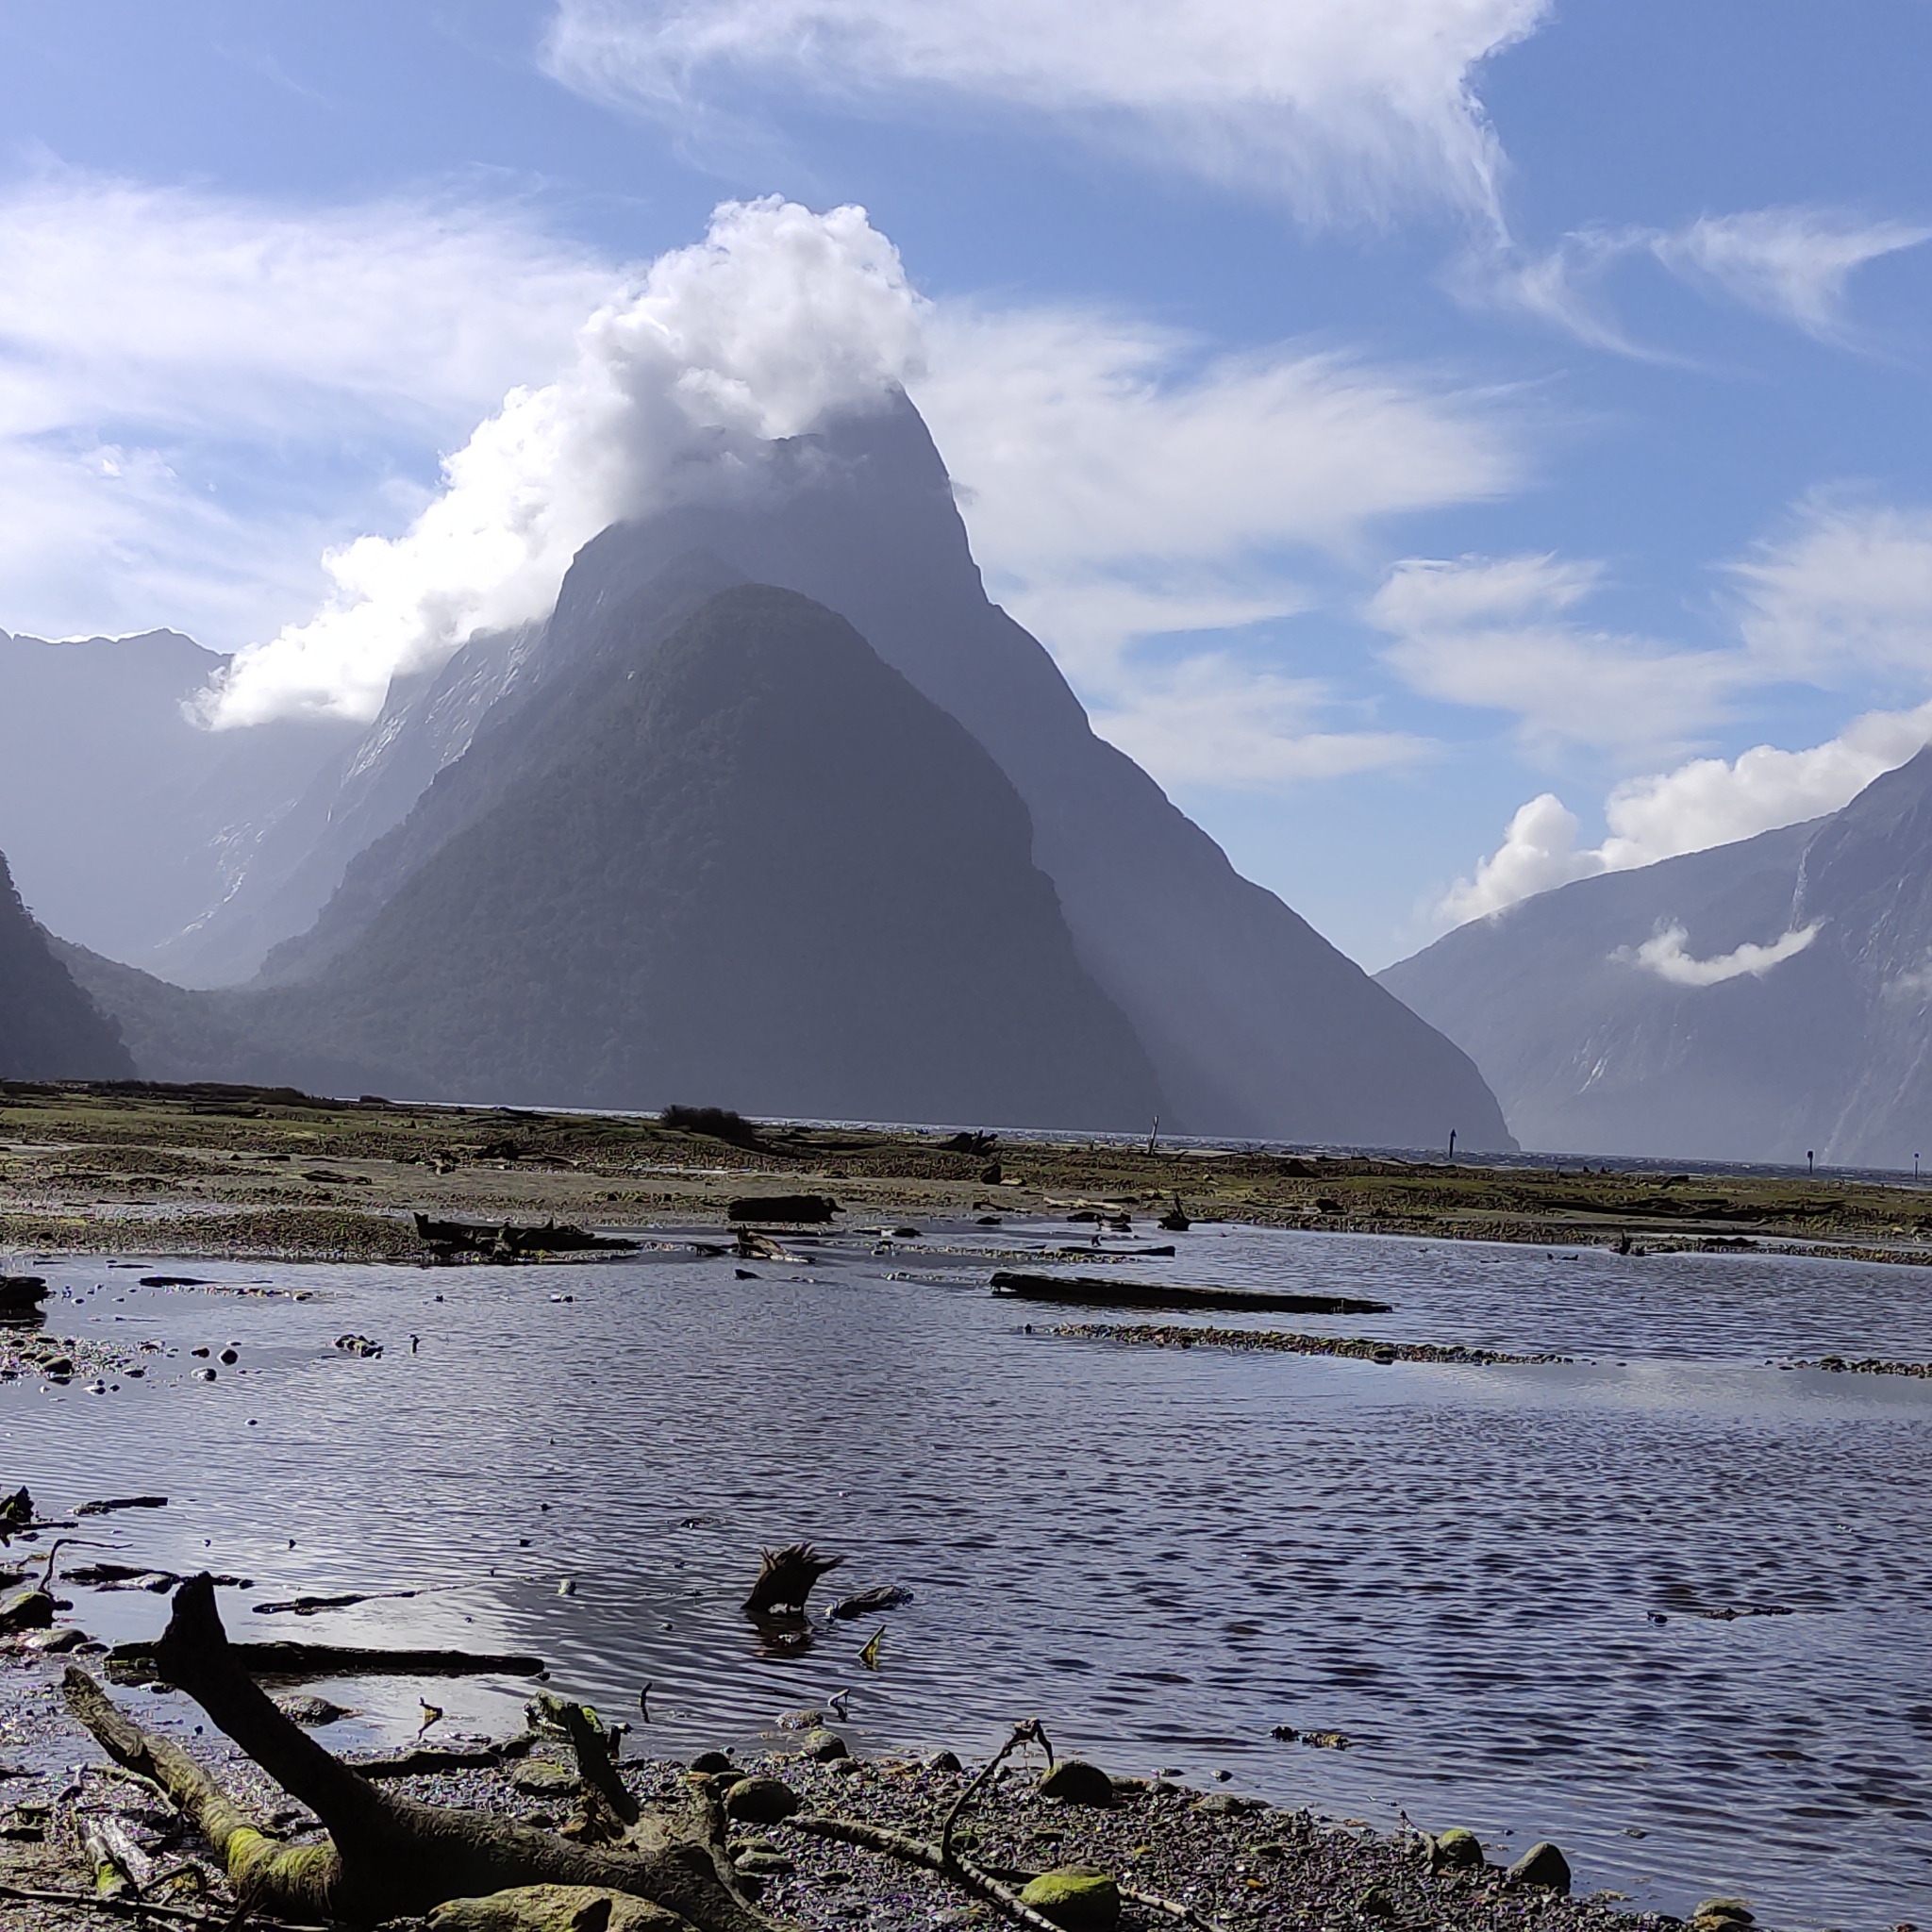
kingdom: Animalia
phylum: Chordata
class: Aves
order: Gruiformes
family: Rallidae
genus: Gallirallus
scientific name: Gallirallus australis
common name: Weka
